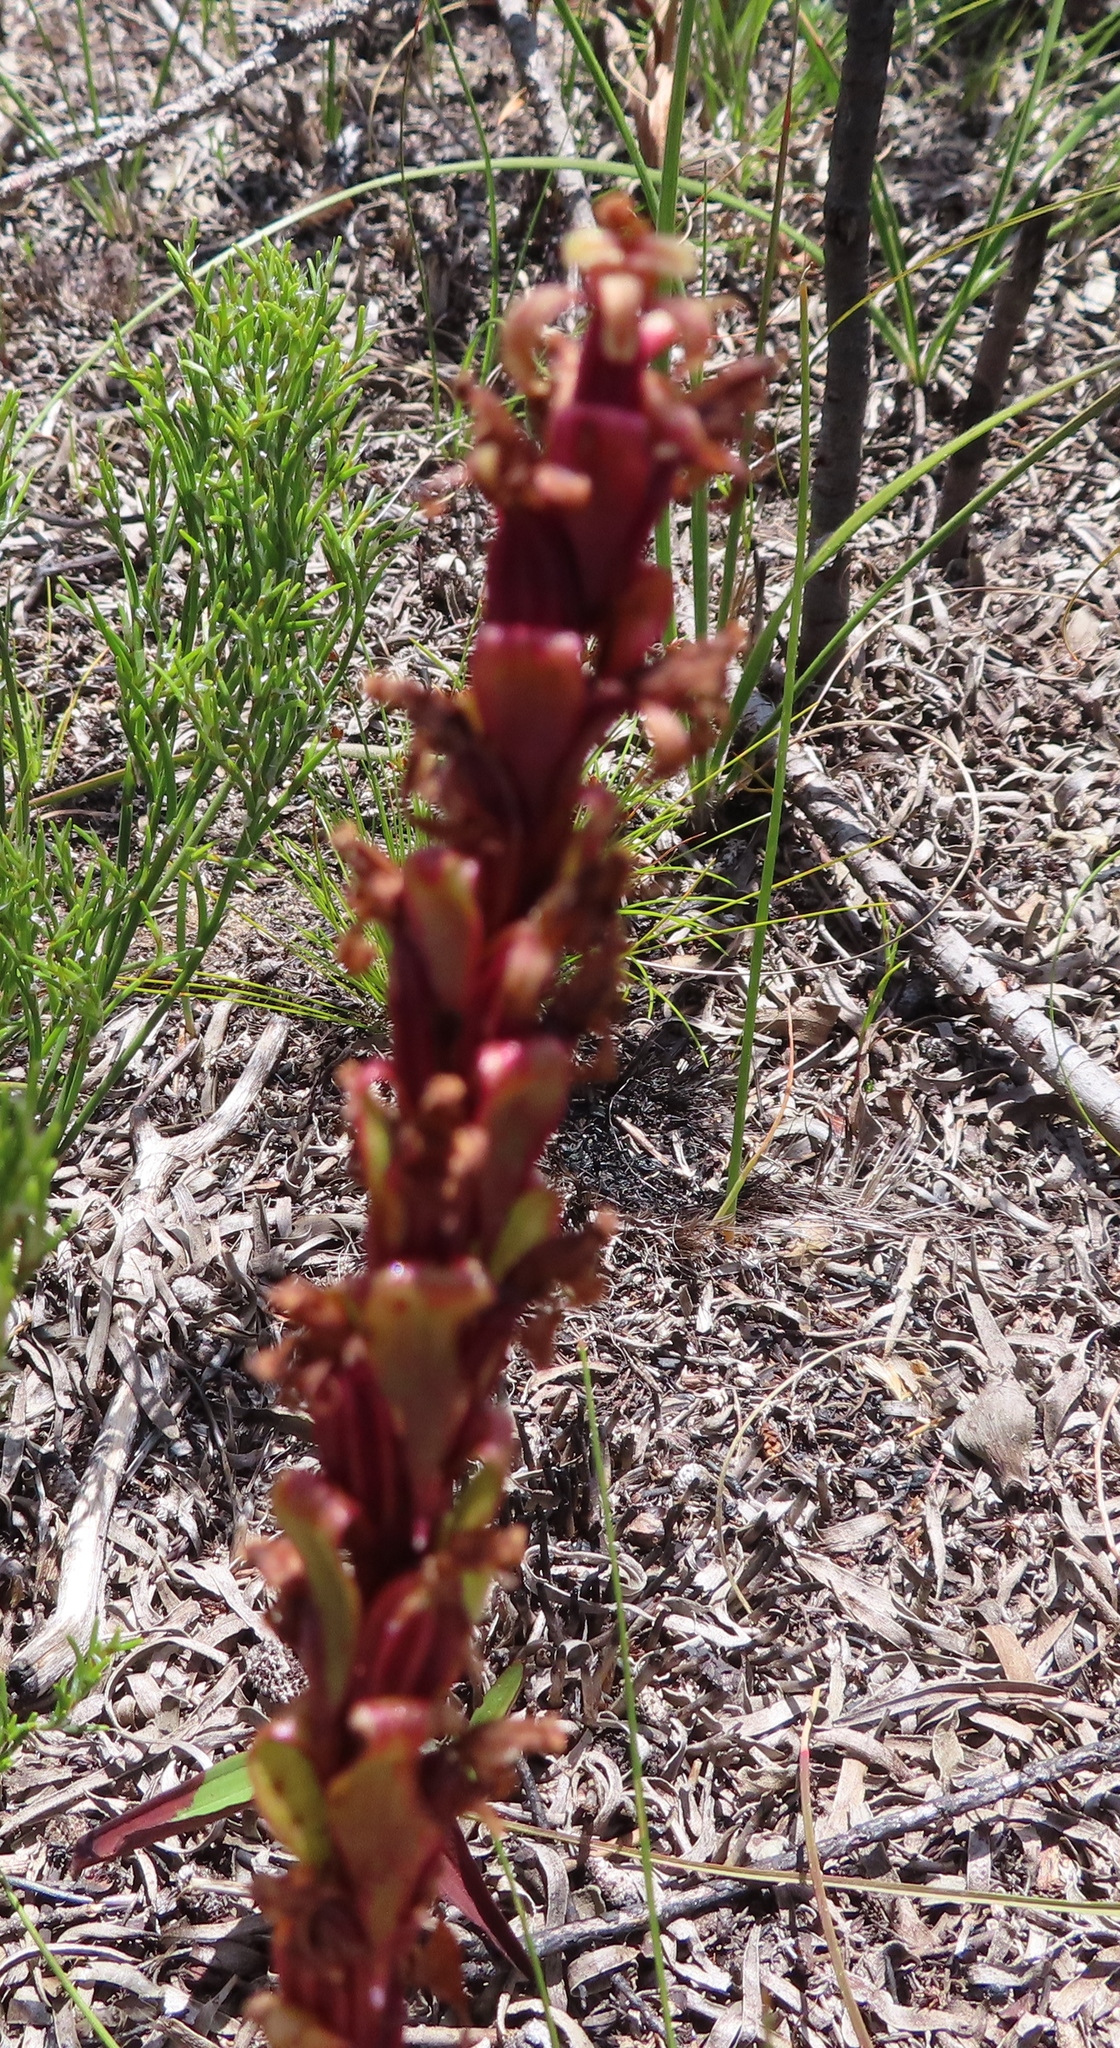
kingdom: Plantae
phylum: Tracheophyta
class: Liliopsida
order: Asparagales
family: Orchidaceae
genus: Satyrium
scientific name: Satyrium lupulinum
